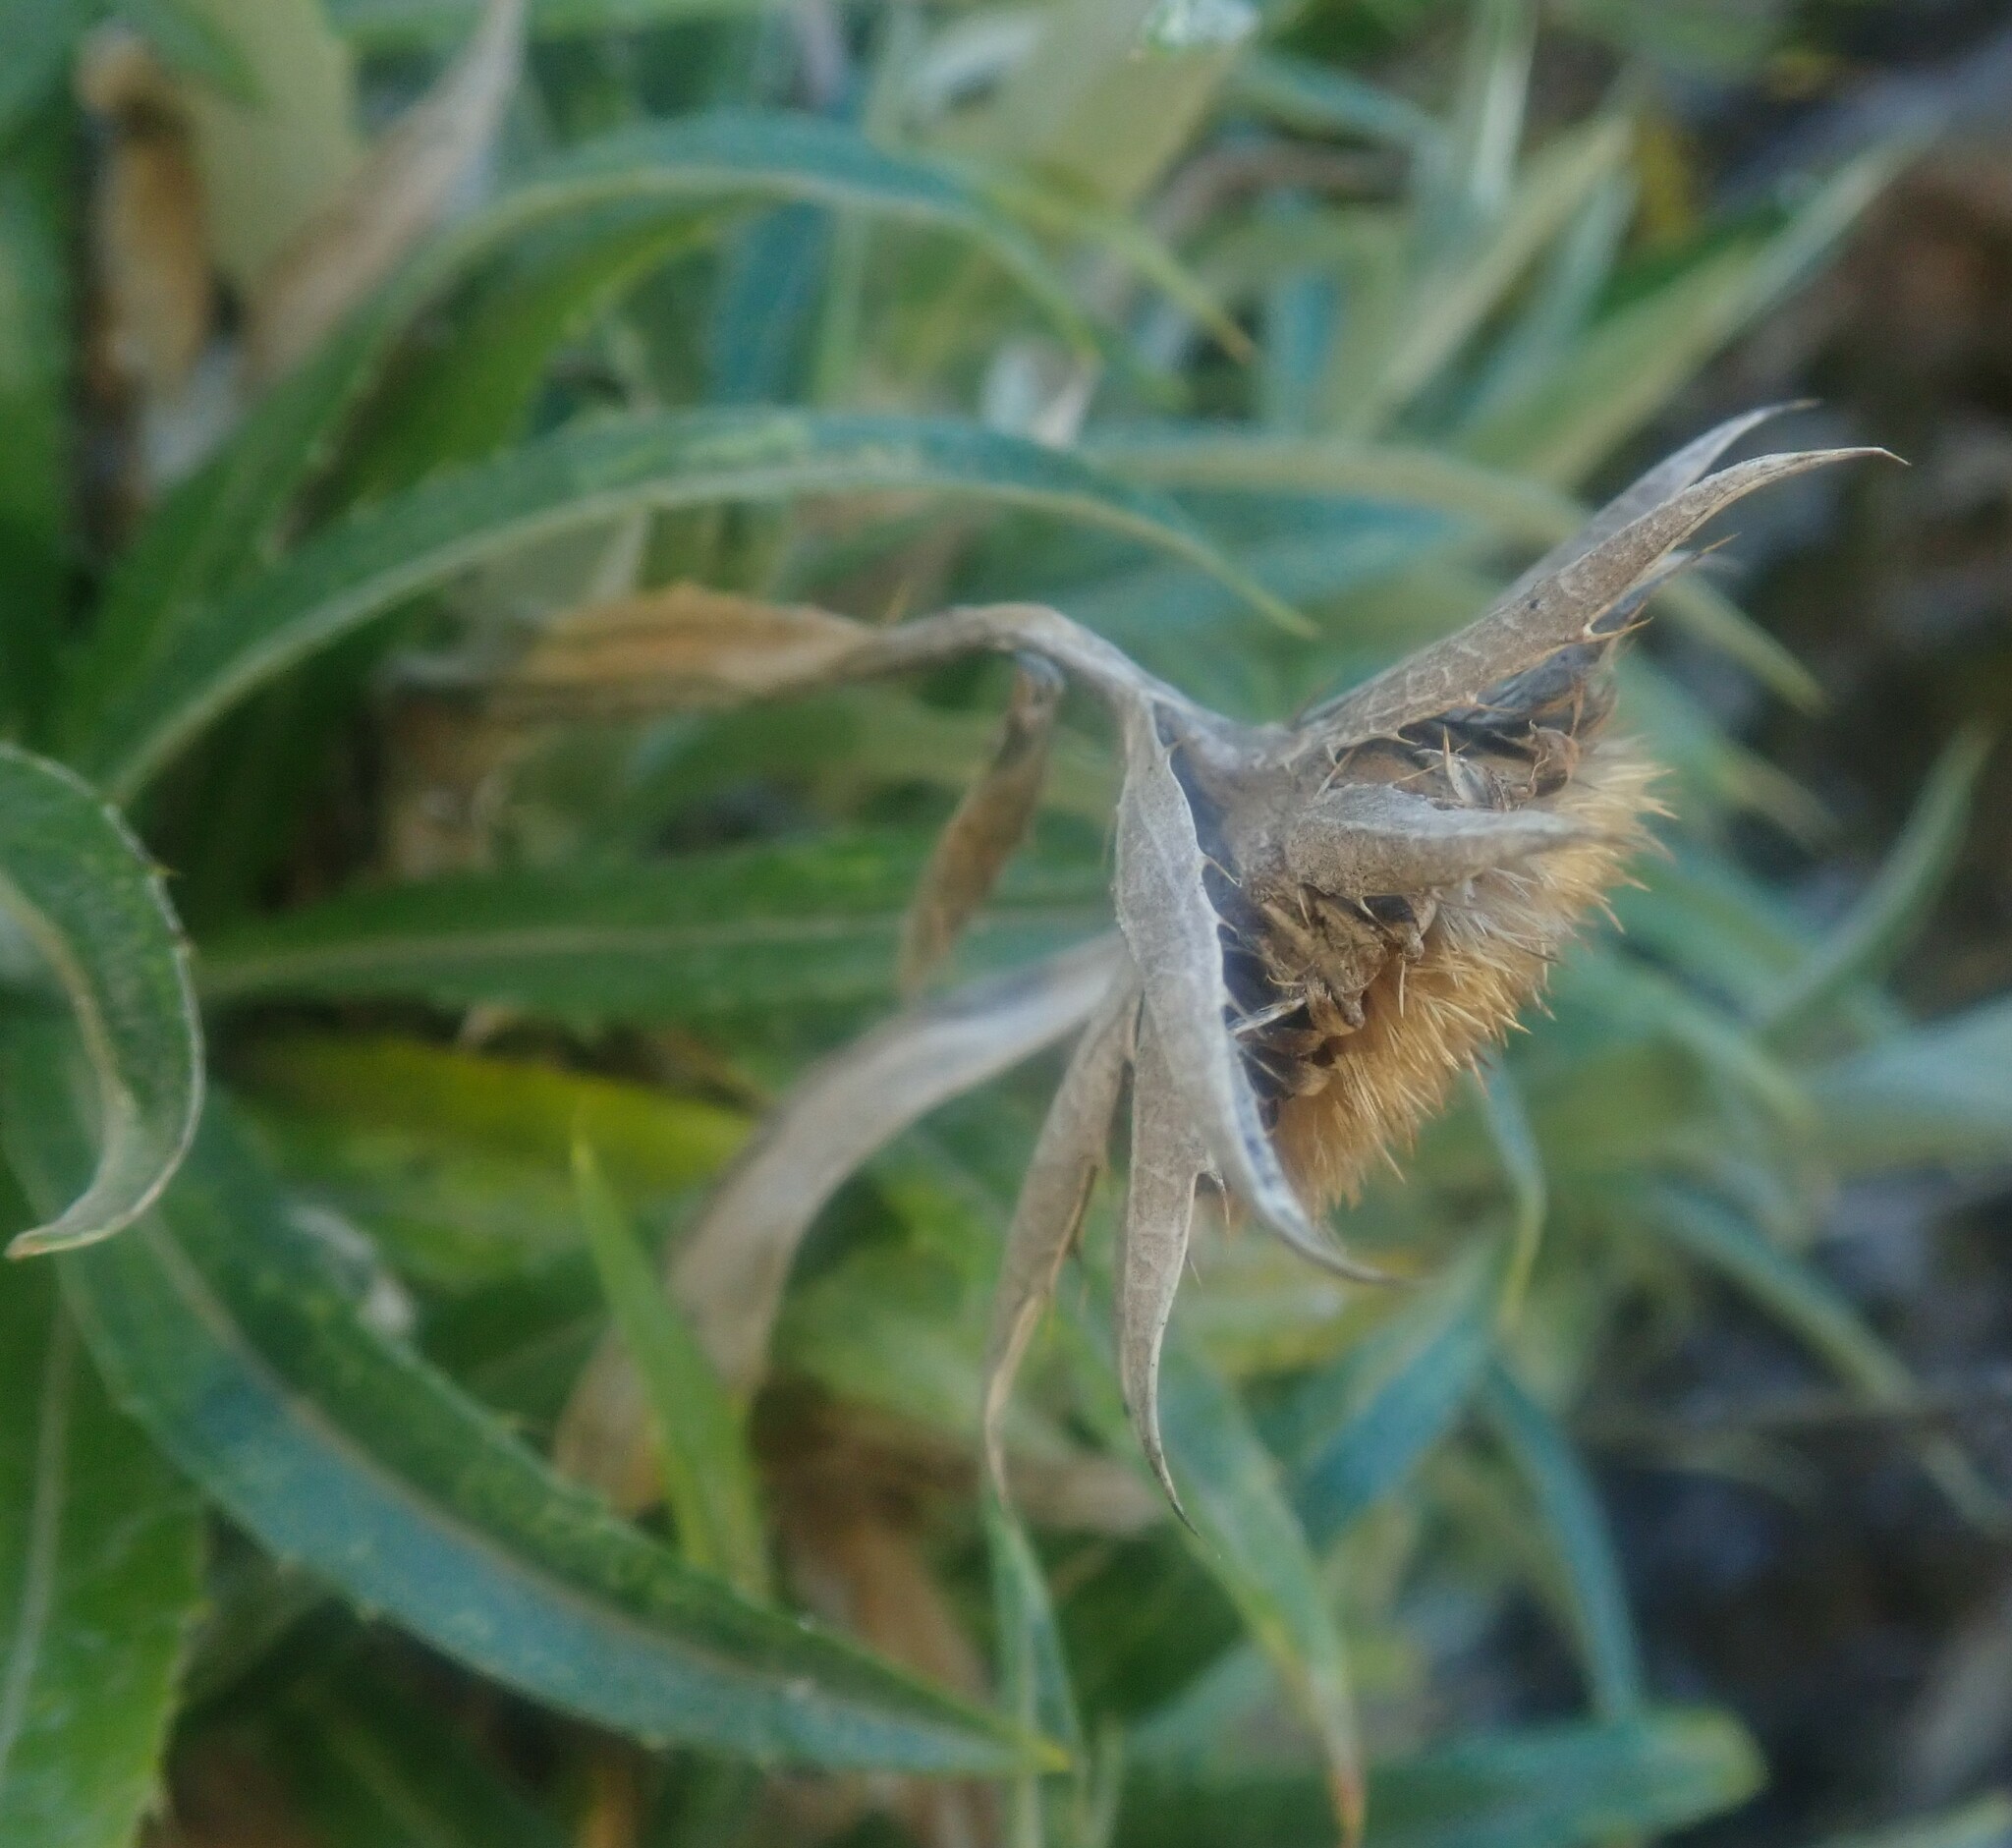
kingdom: Plantae
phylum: Tracheophyta
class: Magnoliopsida
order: Asterales
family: Asteraceae
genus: Carlina
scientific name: Carlina salicifolia
